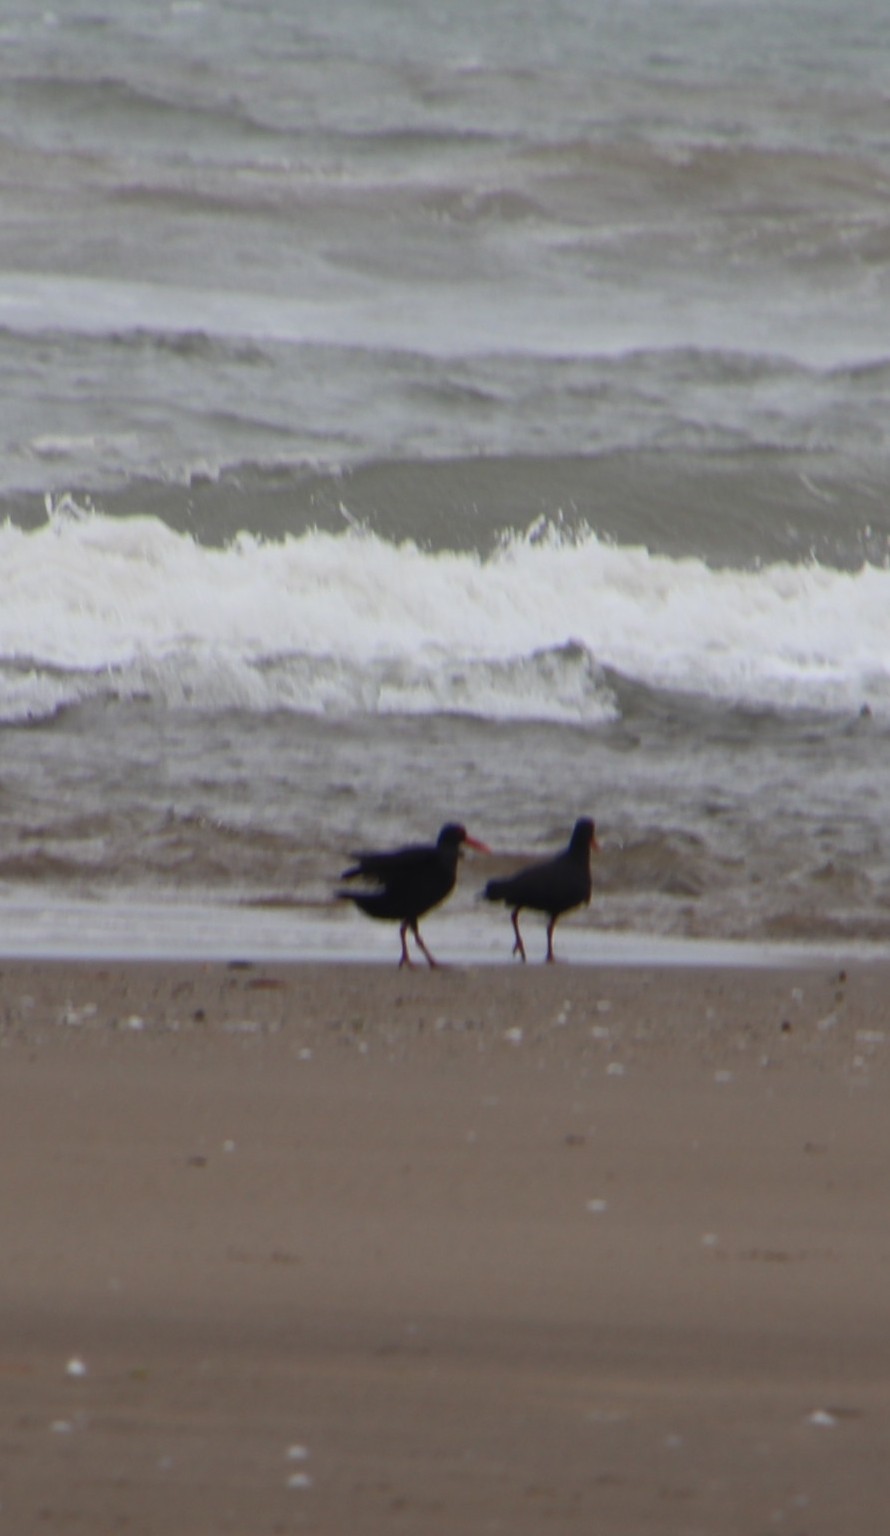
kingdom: Animalia
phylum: Chordata
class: Aves
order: Charadriiformes
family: Haematopodidae
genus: Haematopus
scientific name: Haematopus moquini
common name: African oystercatcher
